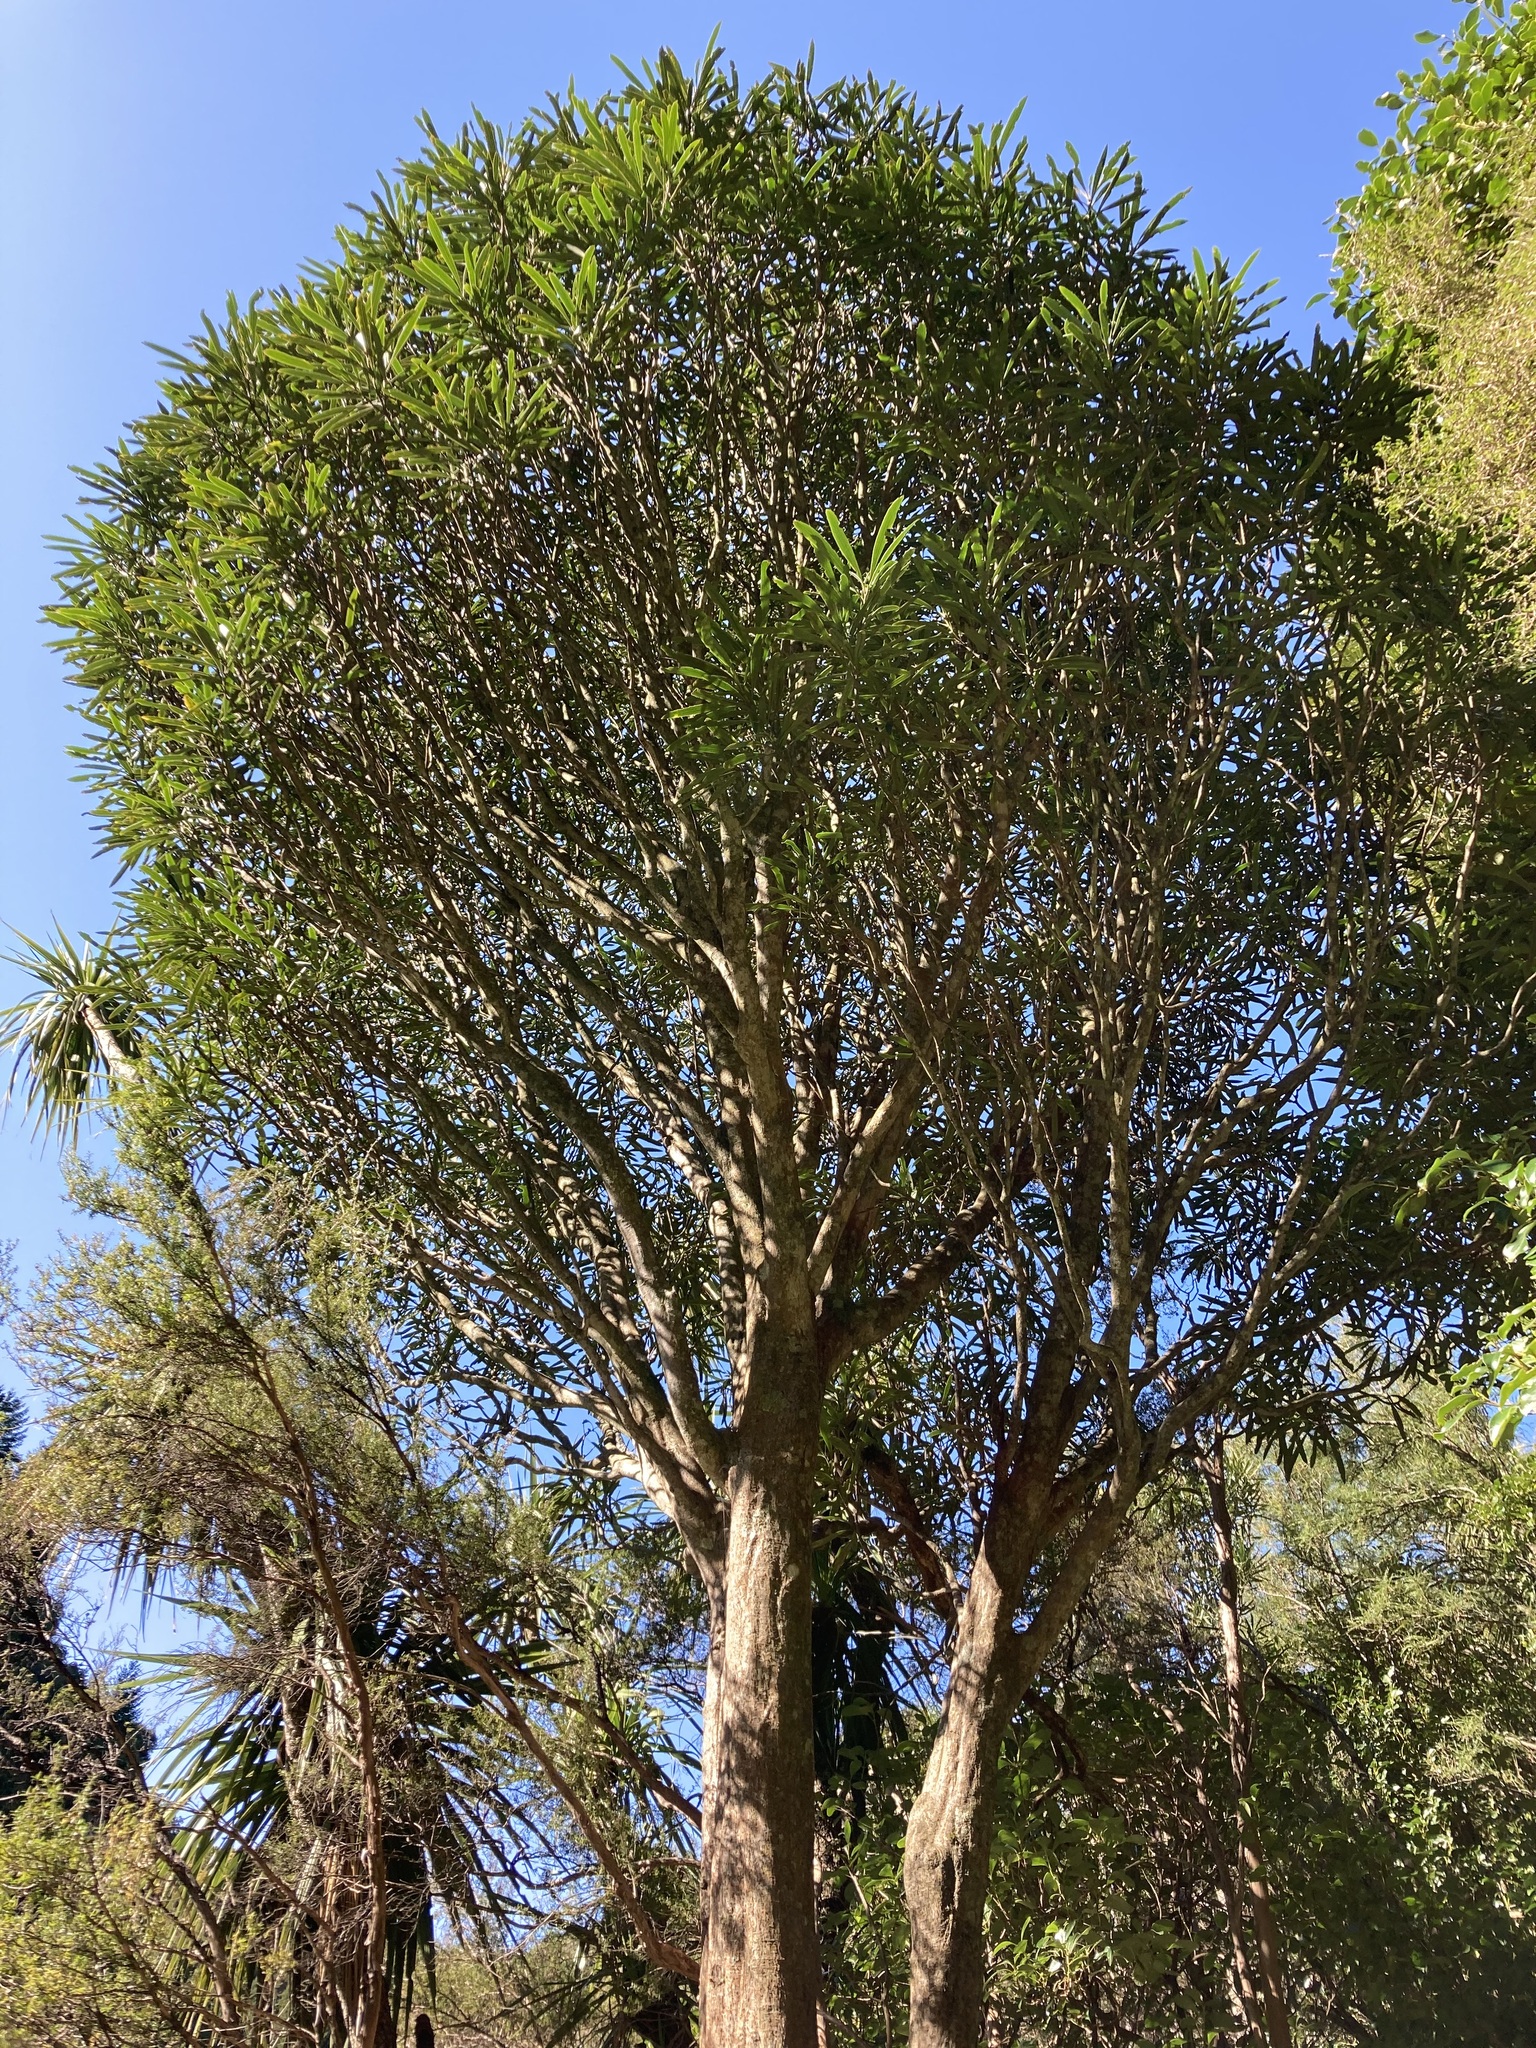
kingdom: Plantae
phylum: Tracheophyta
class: Magnoliopsida
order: Apiales
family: Araliaceae
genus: Pseudopanax
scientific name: Pseudopanax crassifolius
